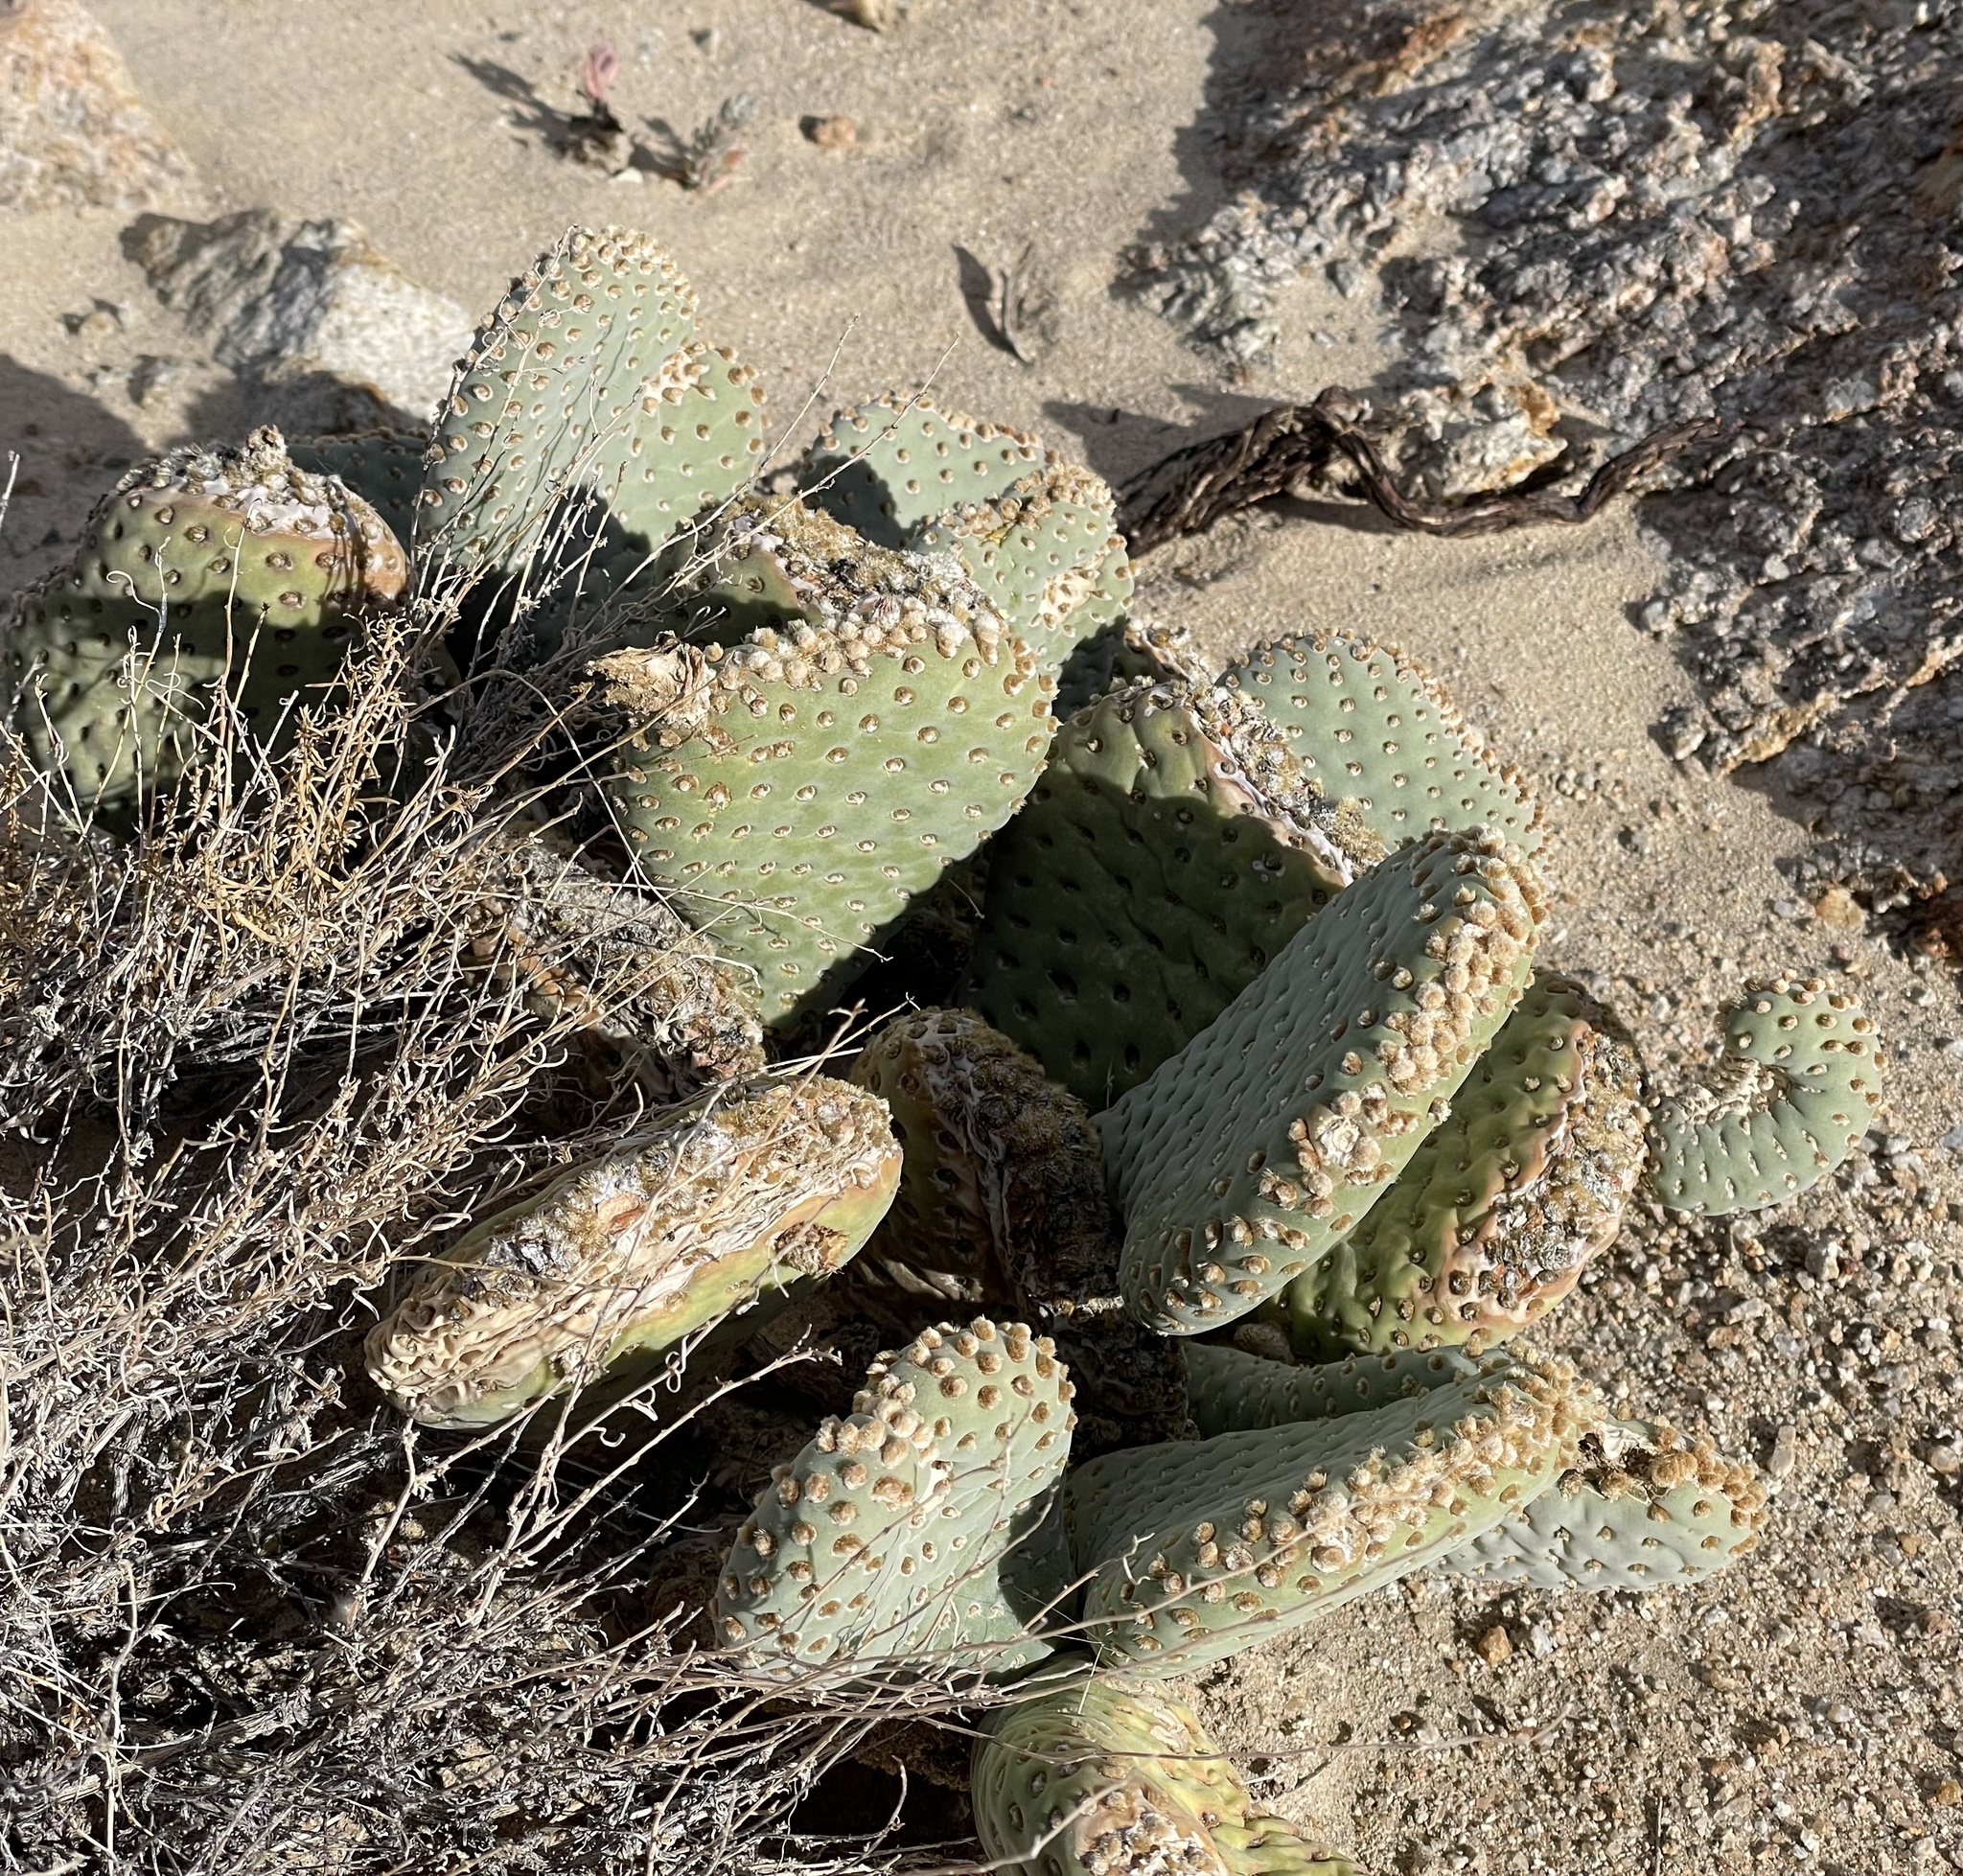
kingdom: Plantae
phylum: Tracheophyta
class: Magnoliopsida
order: Caryophyllales
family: Cactaceae
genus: Opuntia
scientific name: Opuntia basilaris
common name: Beavertail prickly-pear
